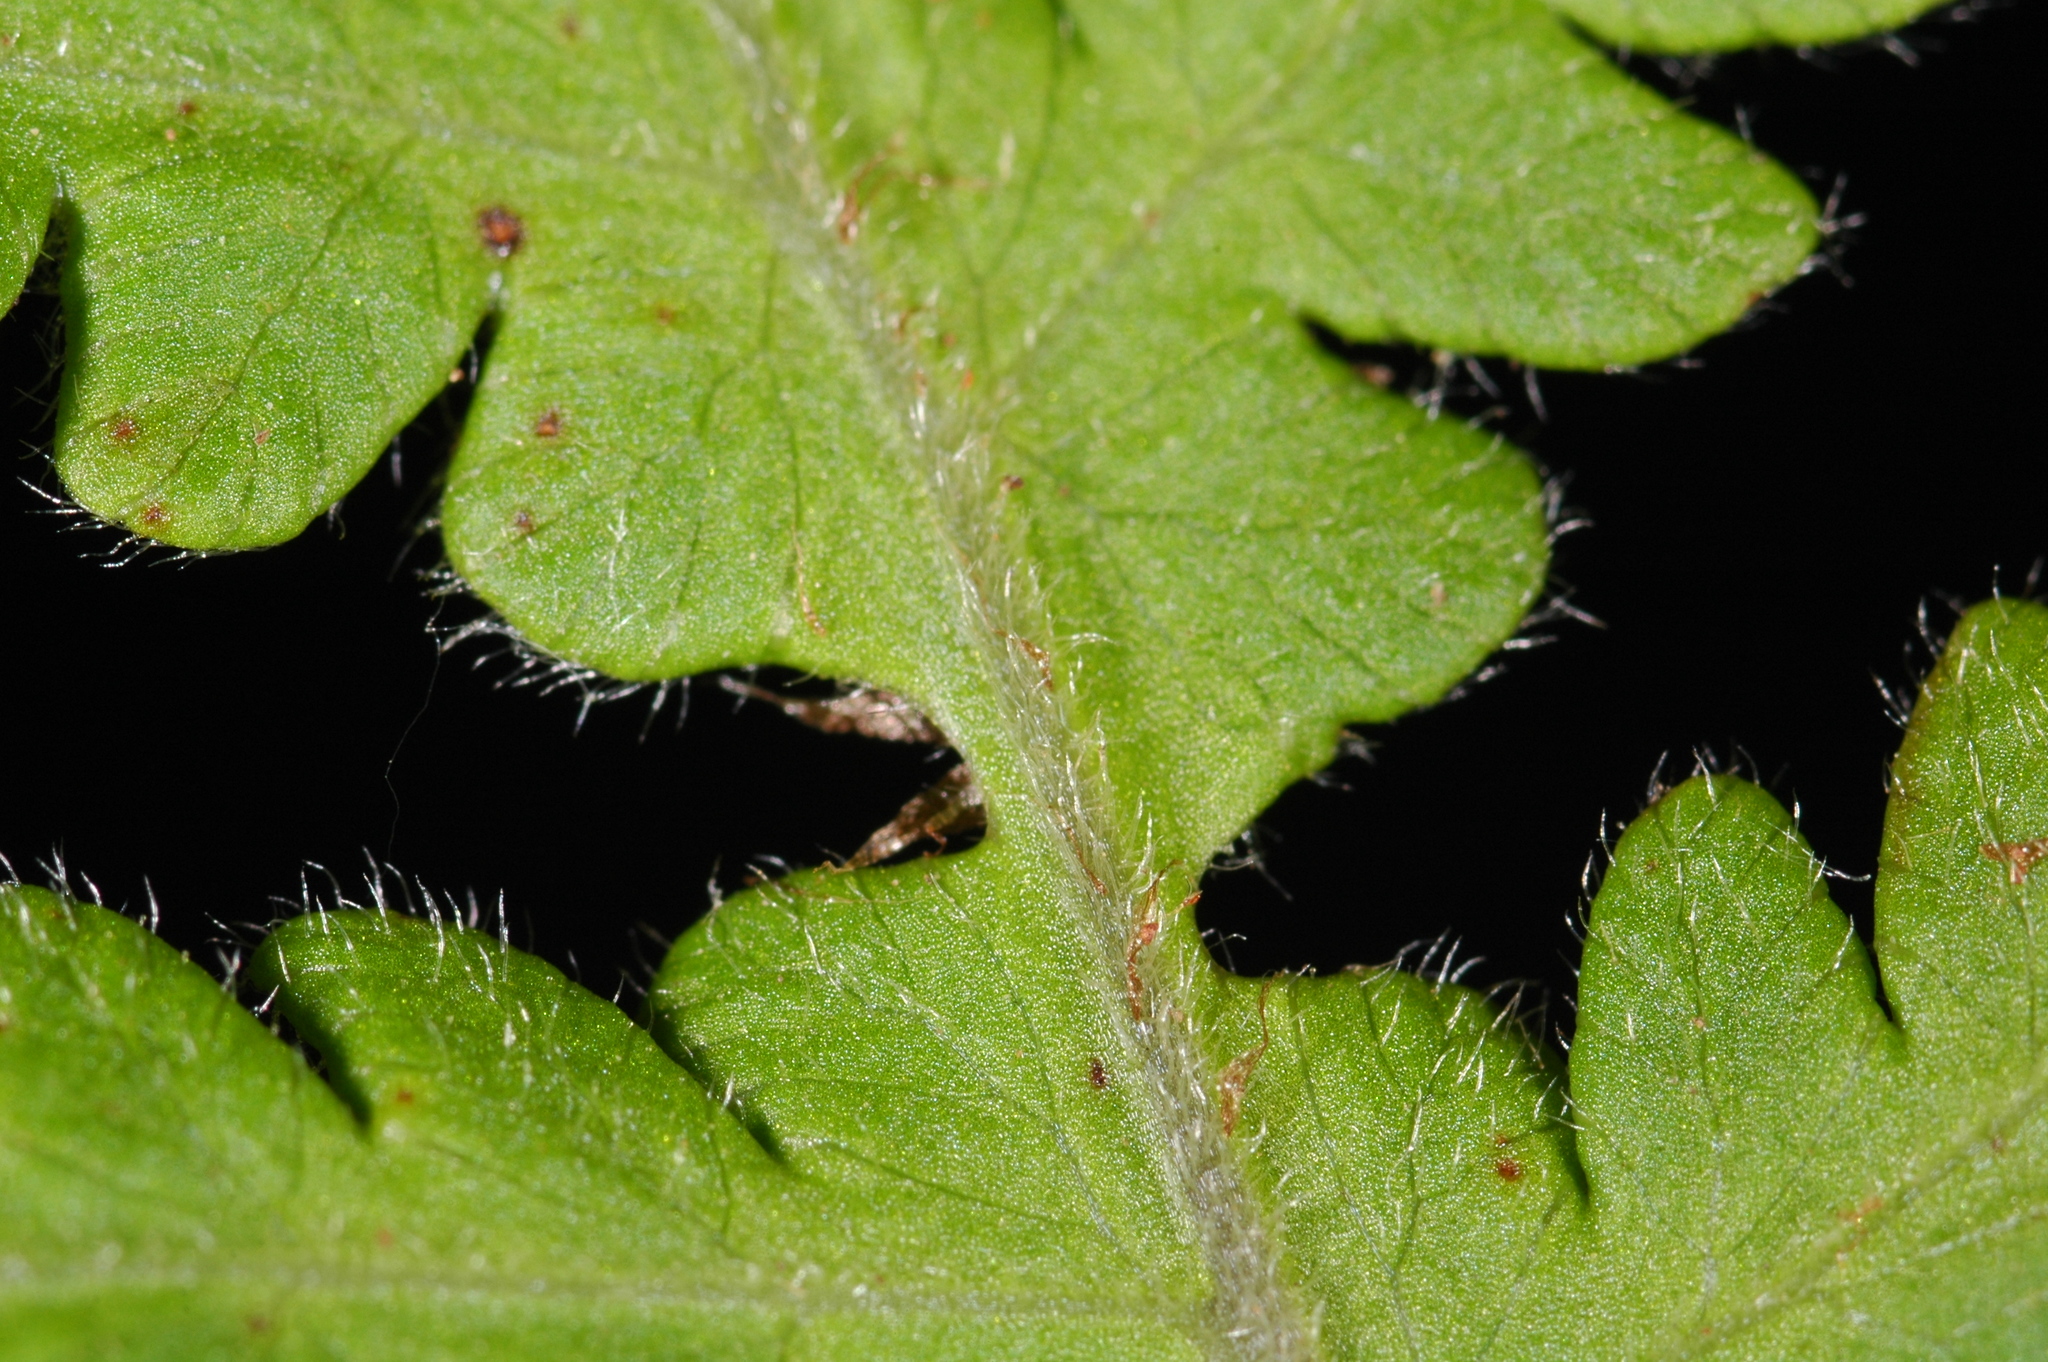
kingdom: Plantae
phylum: Tracheophyta
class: Polypodiopsida
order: Polypodiales
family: Thelypteridaceae
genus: Phegopteris
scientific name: Phegopteris connectilis
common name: Beech fern
